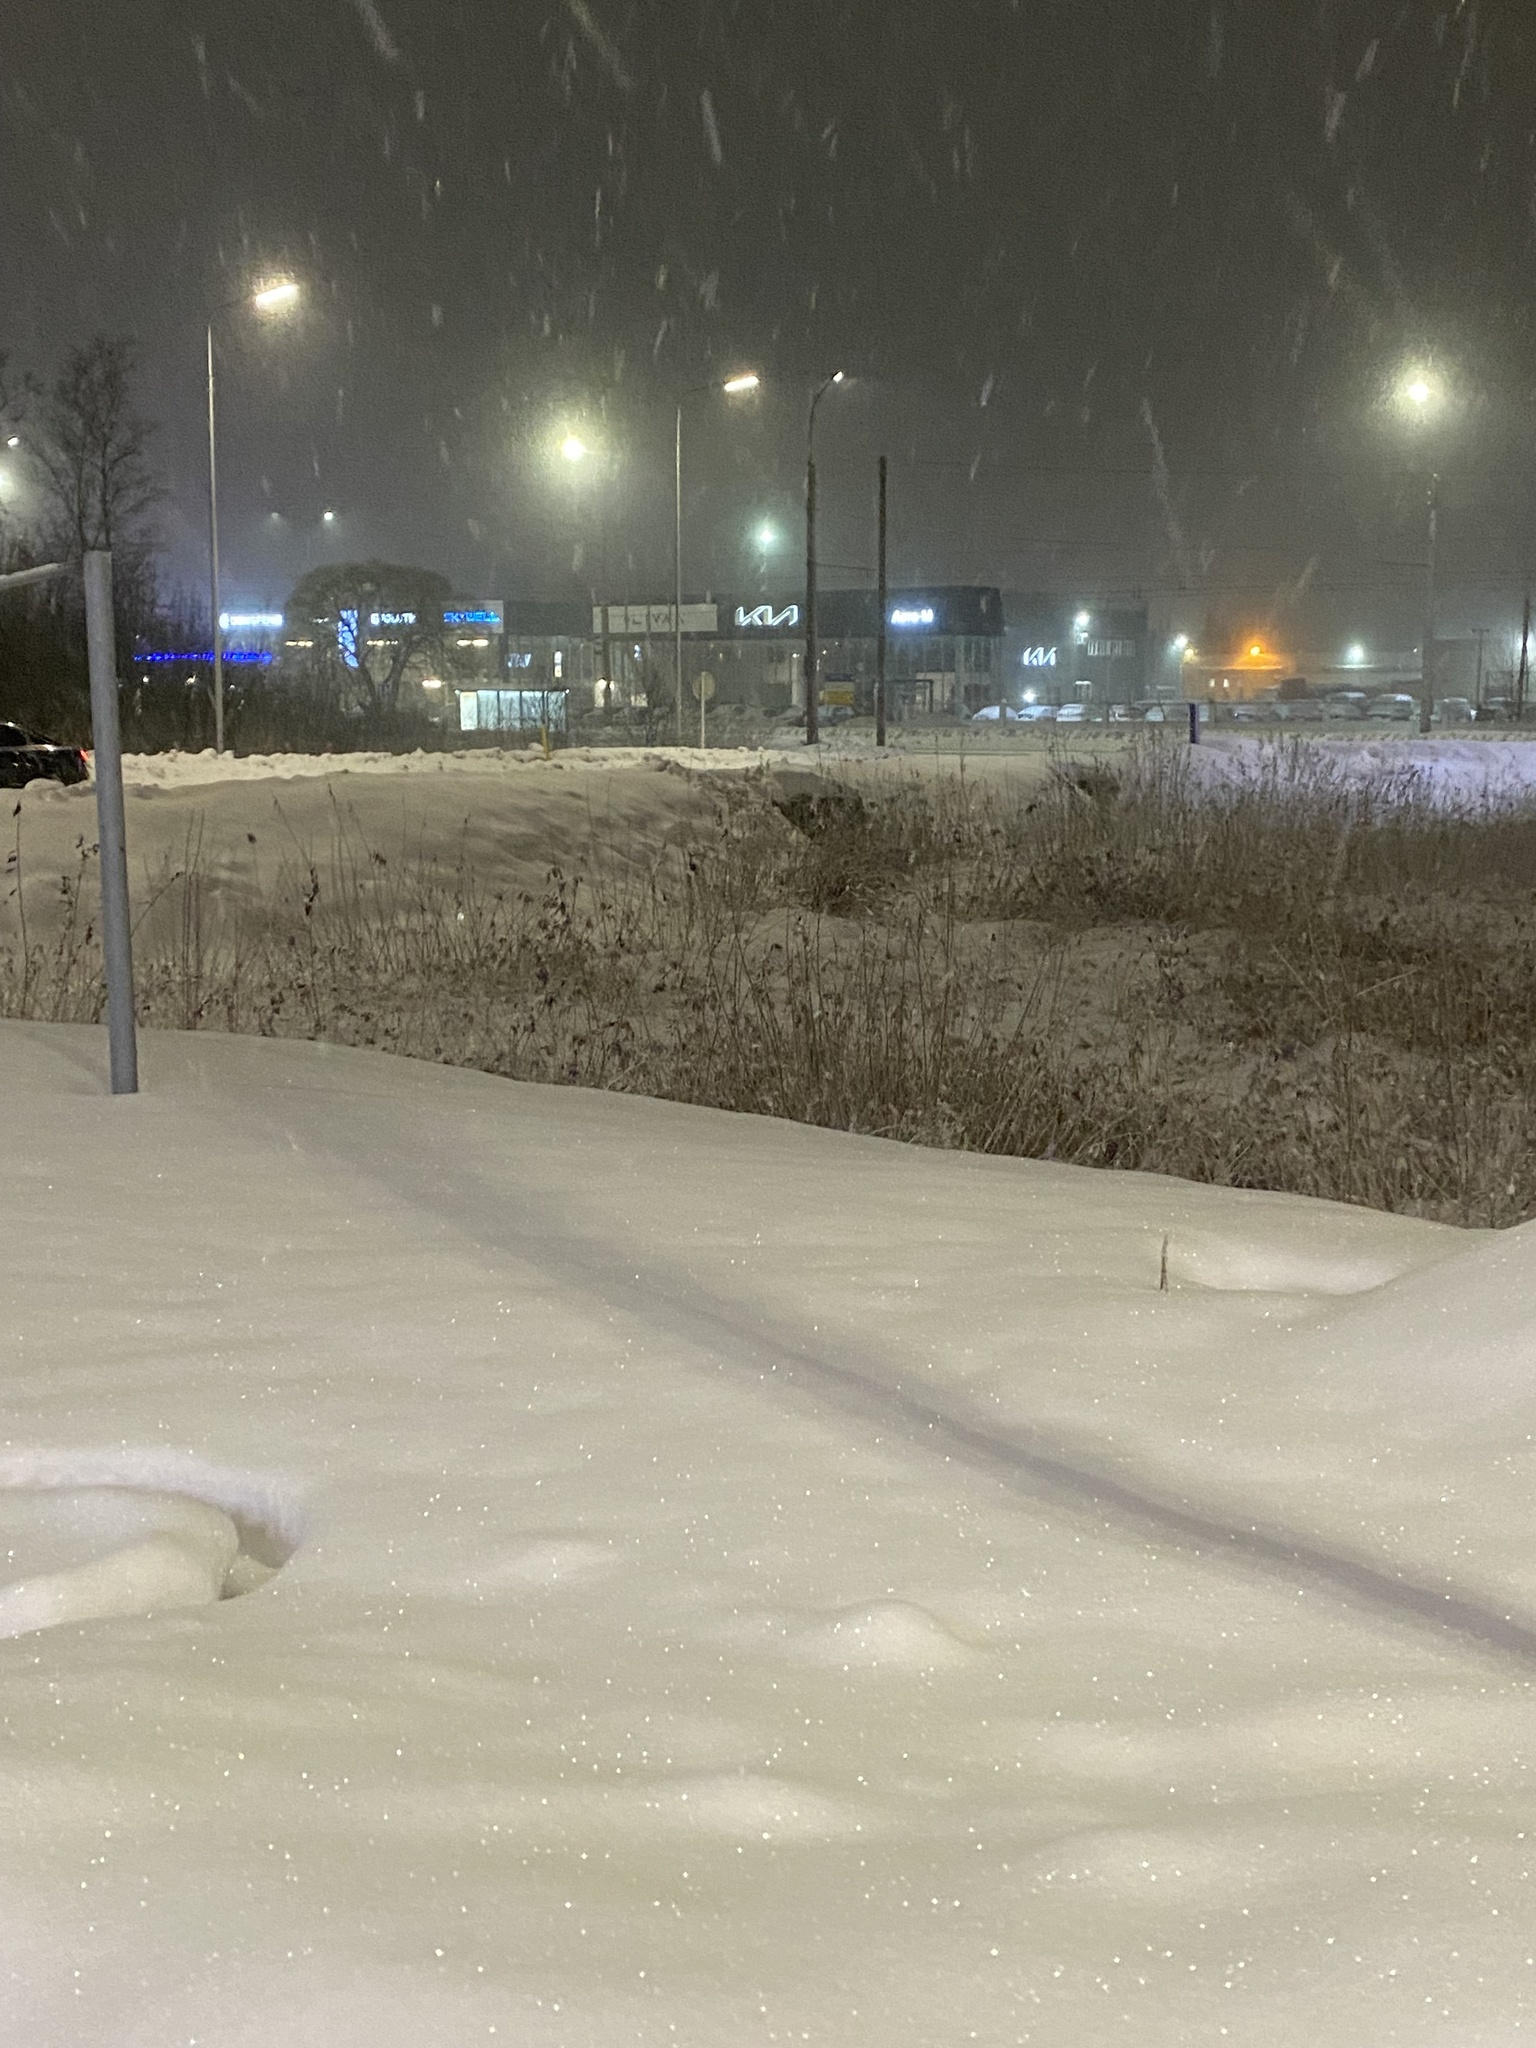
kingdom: Plantae
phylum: Tracheophyta
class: Liliopsida
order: Poales
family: Poaceae
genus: Phragmites
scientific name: Phragmites australis
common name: Common reed
